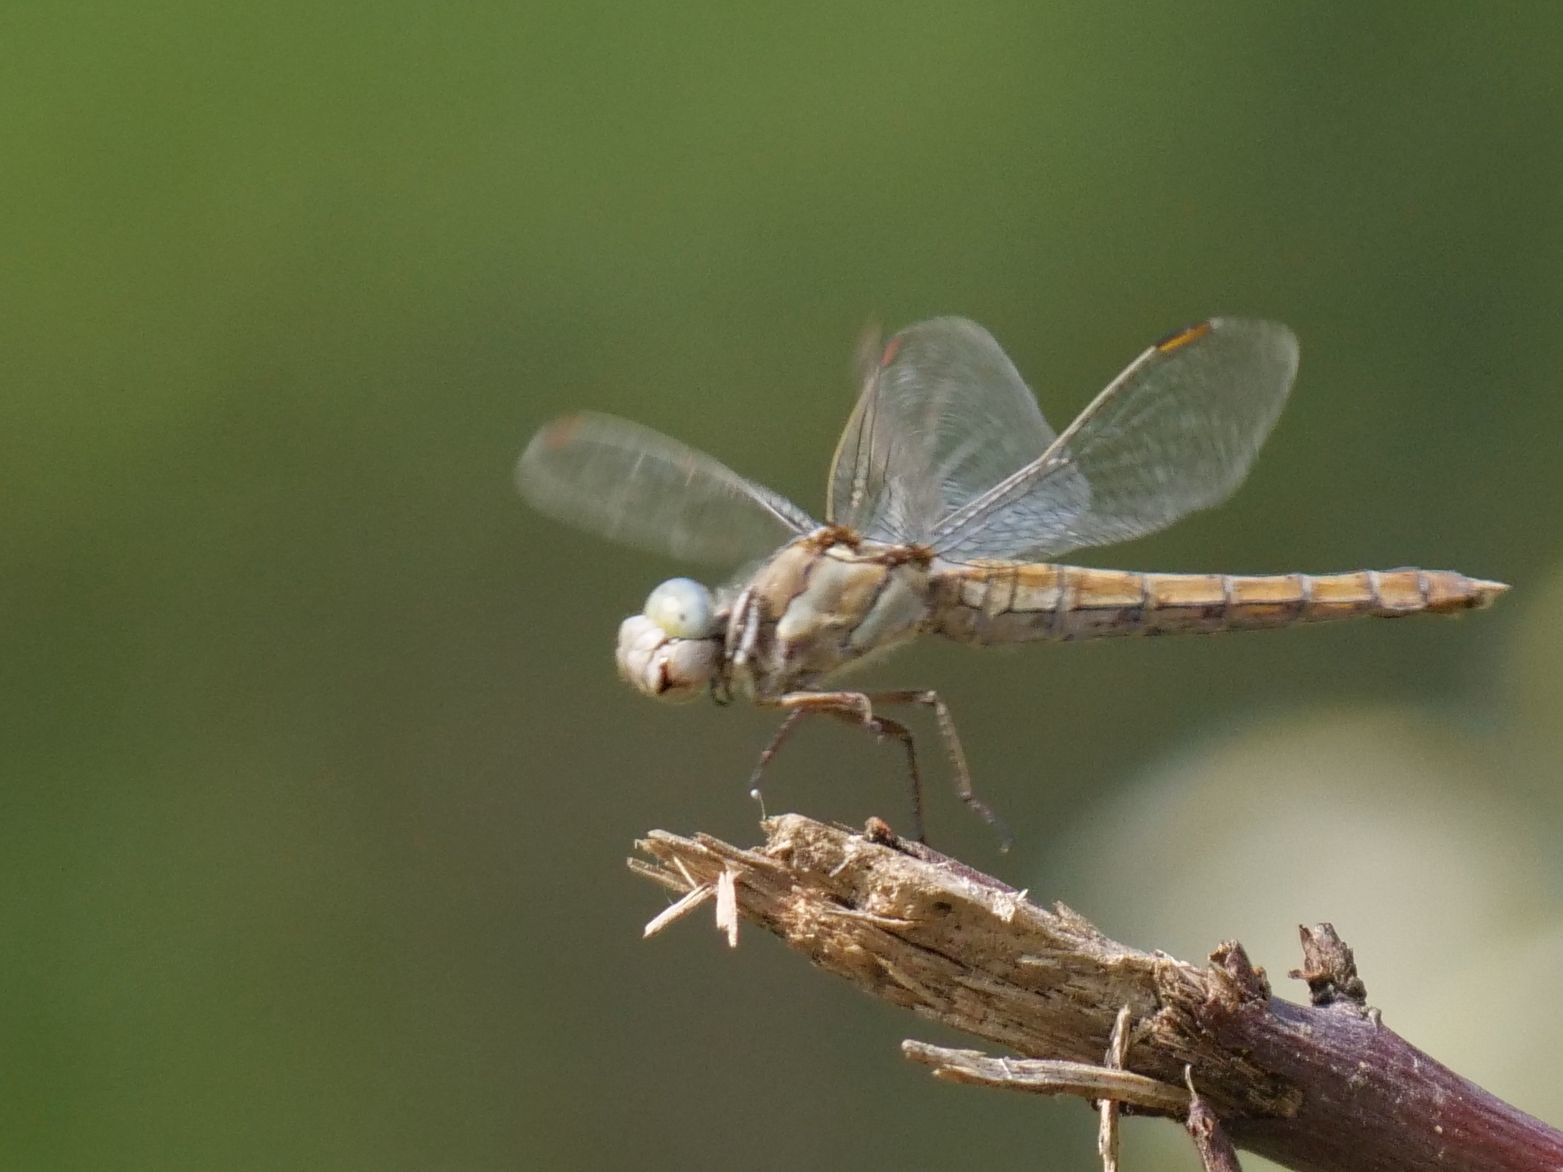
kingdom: Animalia
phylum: Arthropoda
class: Insecta
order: Odonata
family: Libellulidae
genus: Orthetrum
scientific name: Orthetrum brunneum
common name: Southern skimmer
